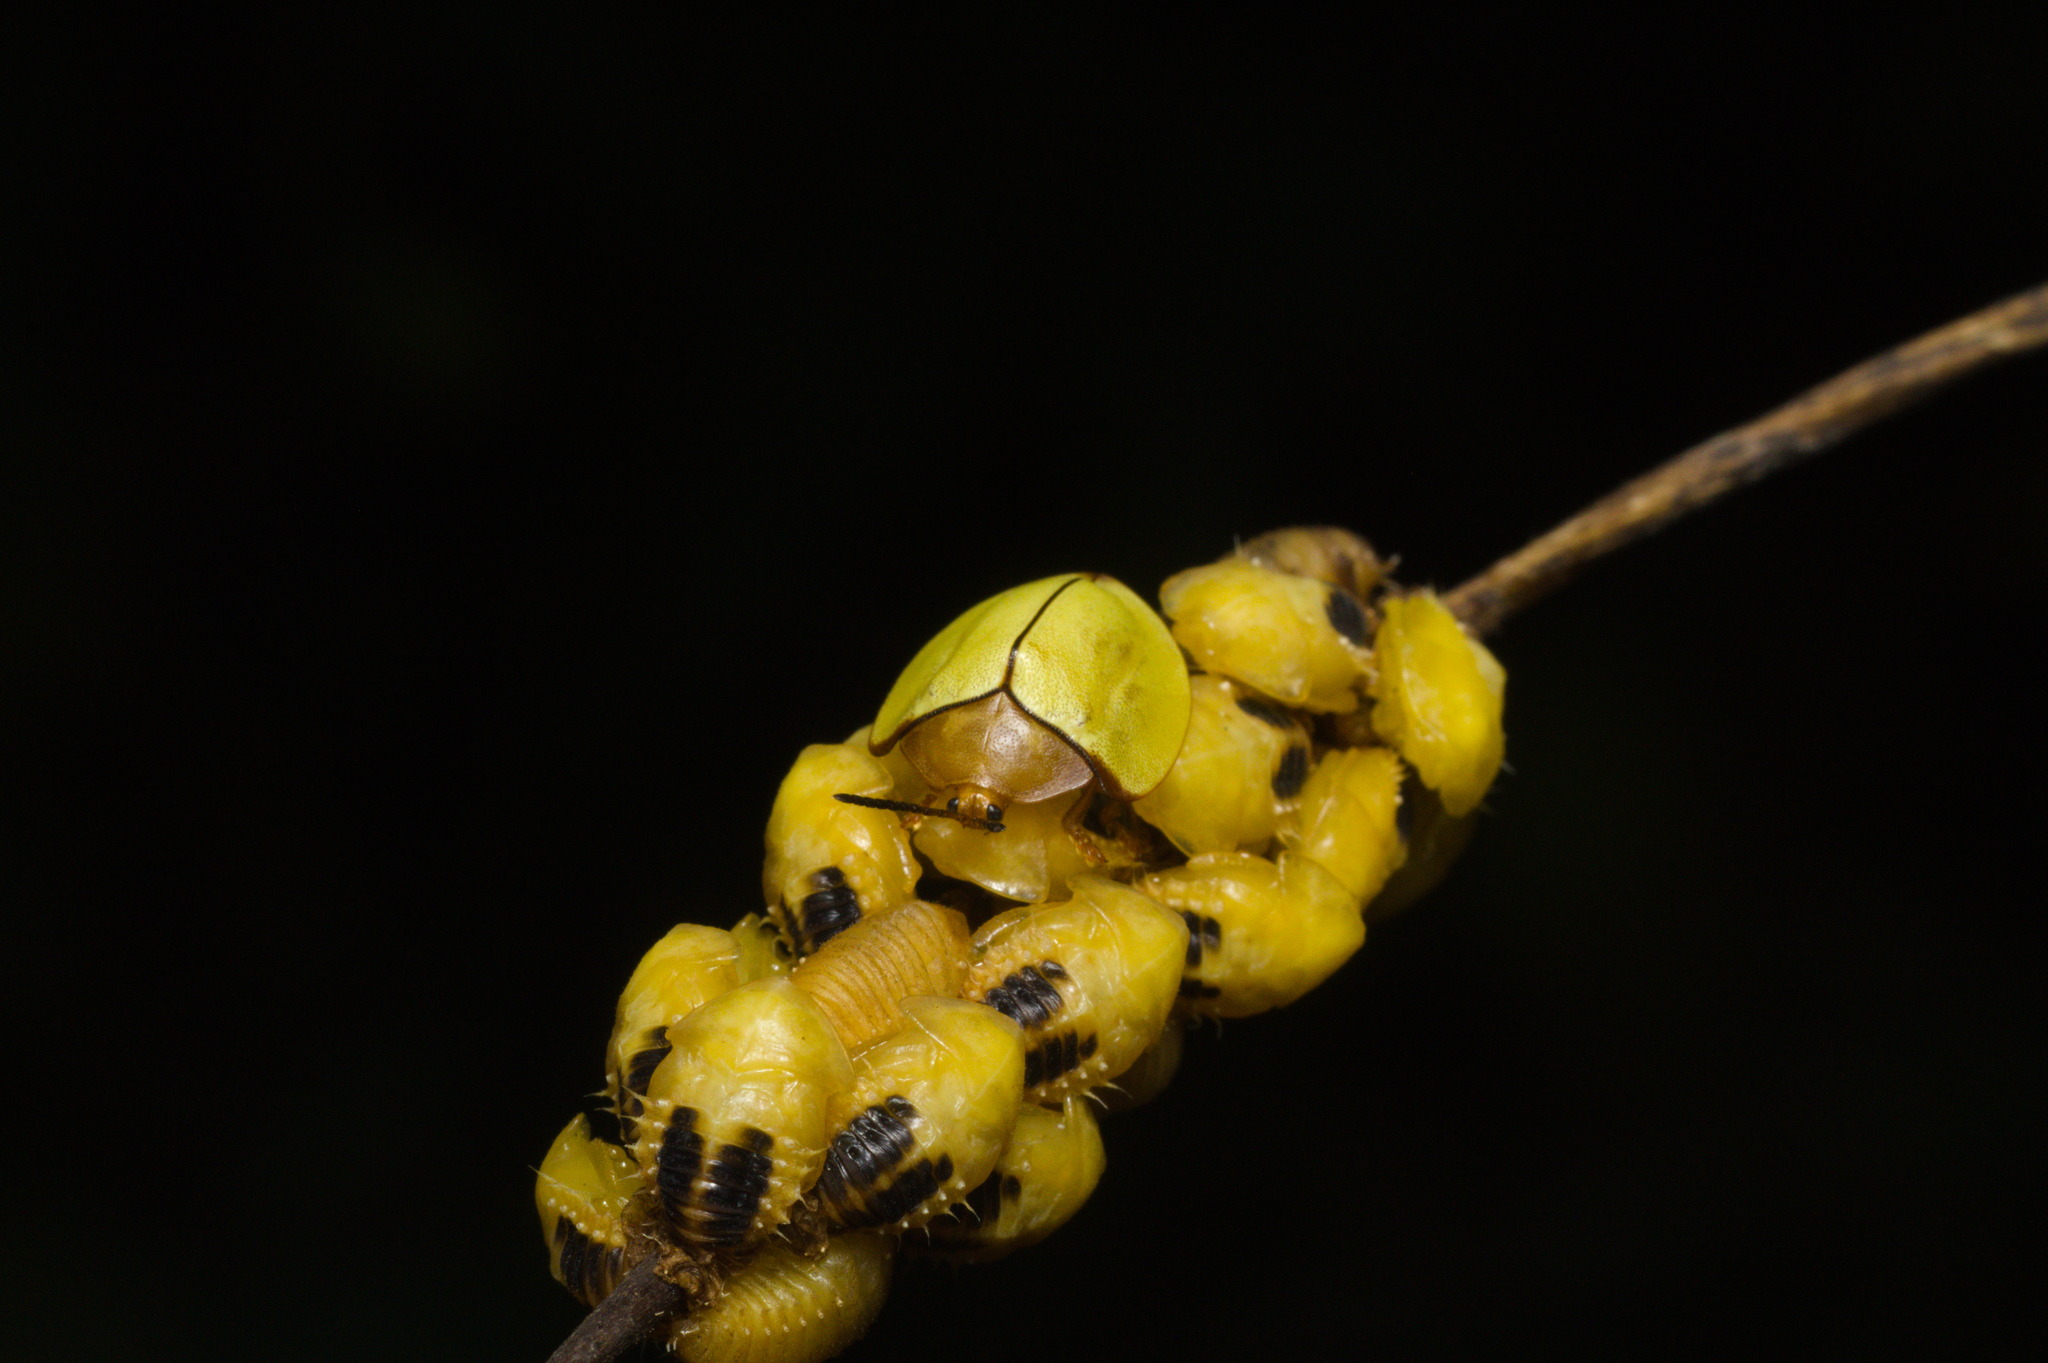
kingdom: Animalia
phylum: Arthropoda
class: Insecta
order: Coleoptera
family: Chrysomelidae
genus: Paraselenis
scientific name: Paraselenis scapulosa
